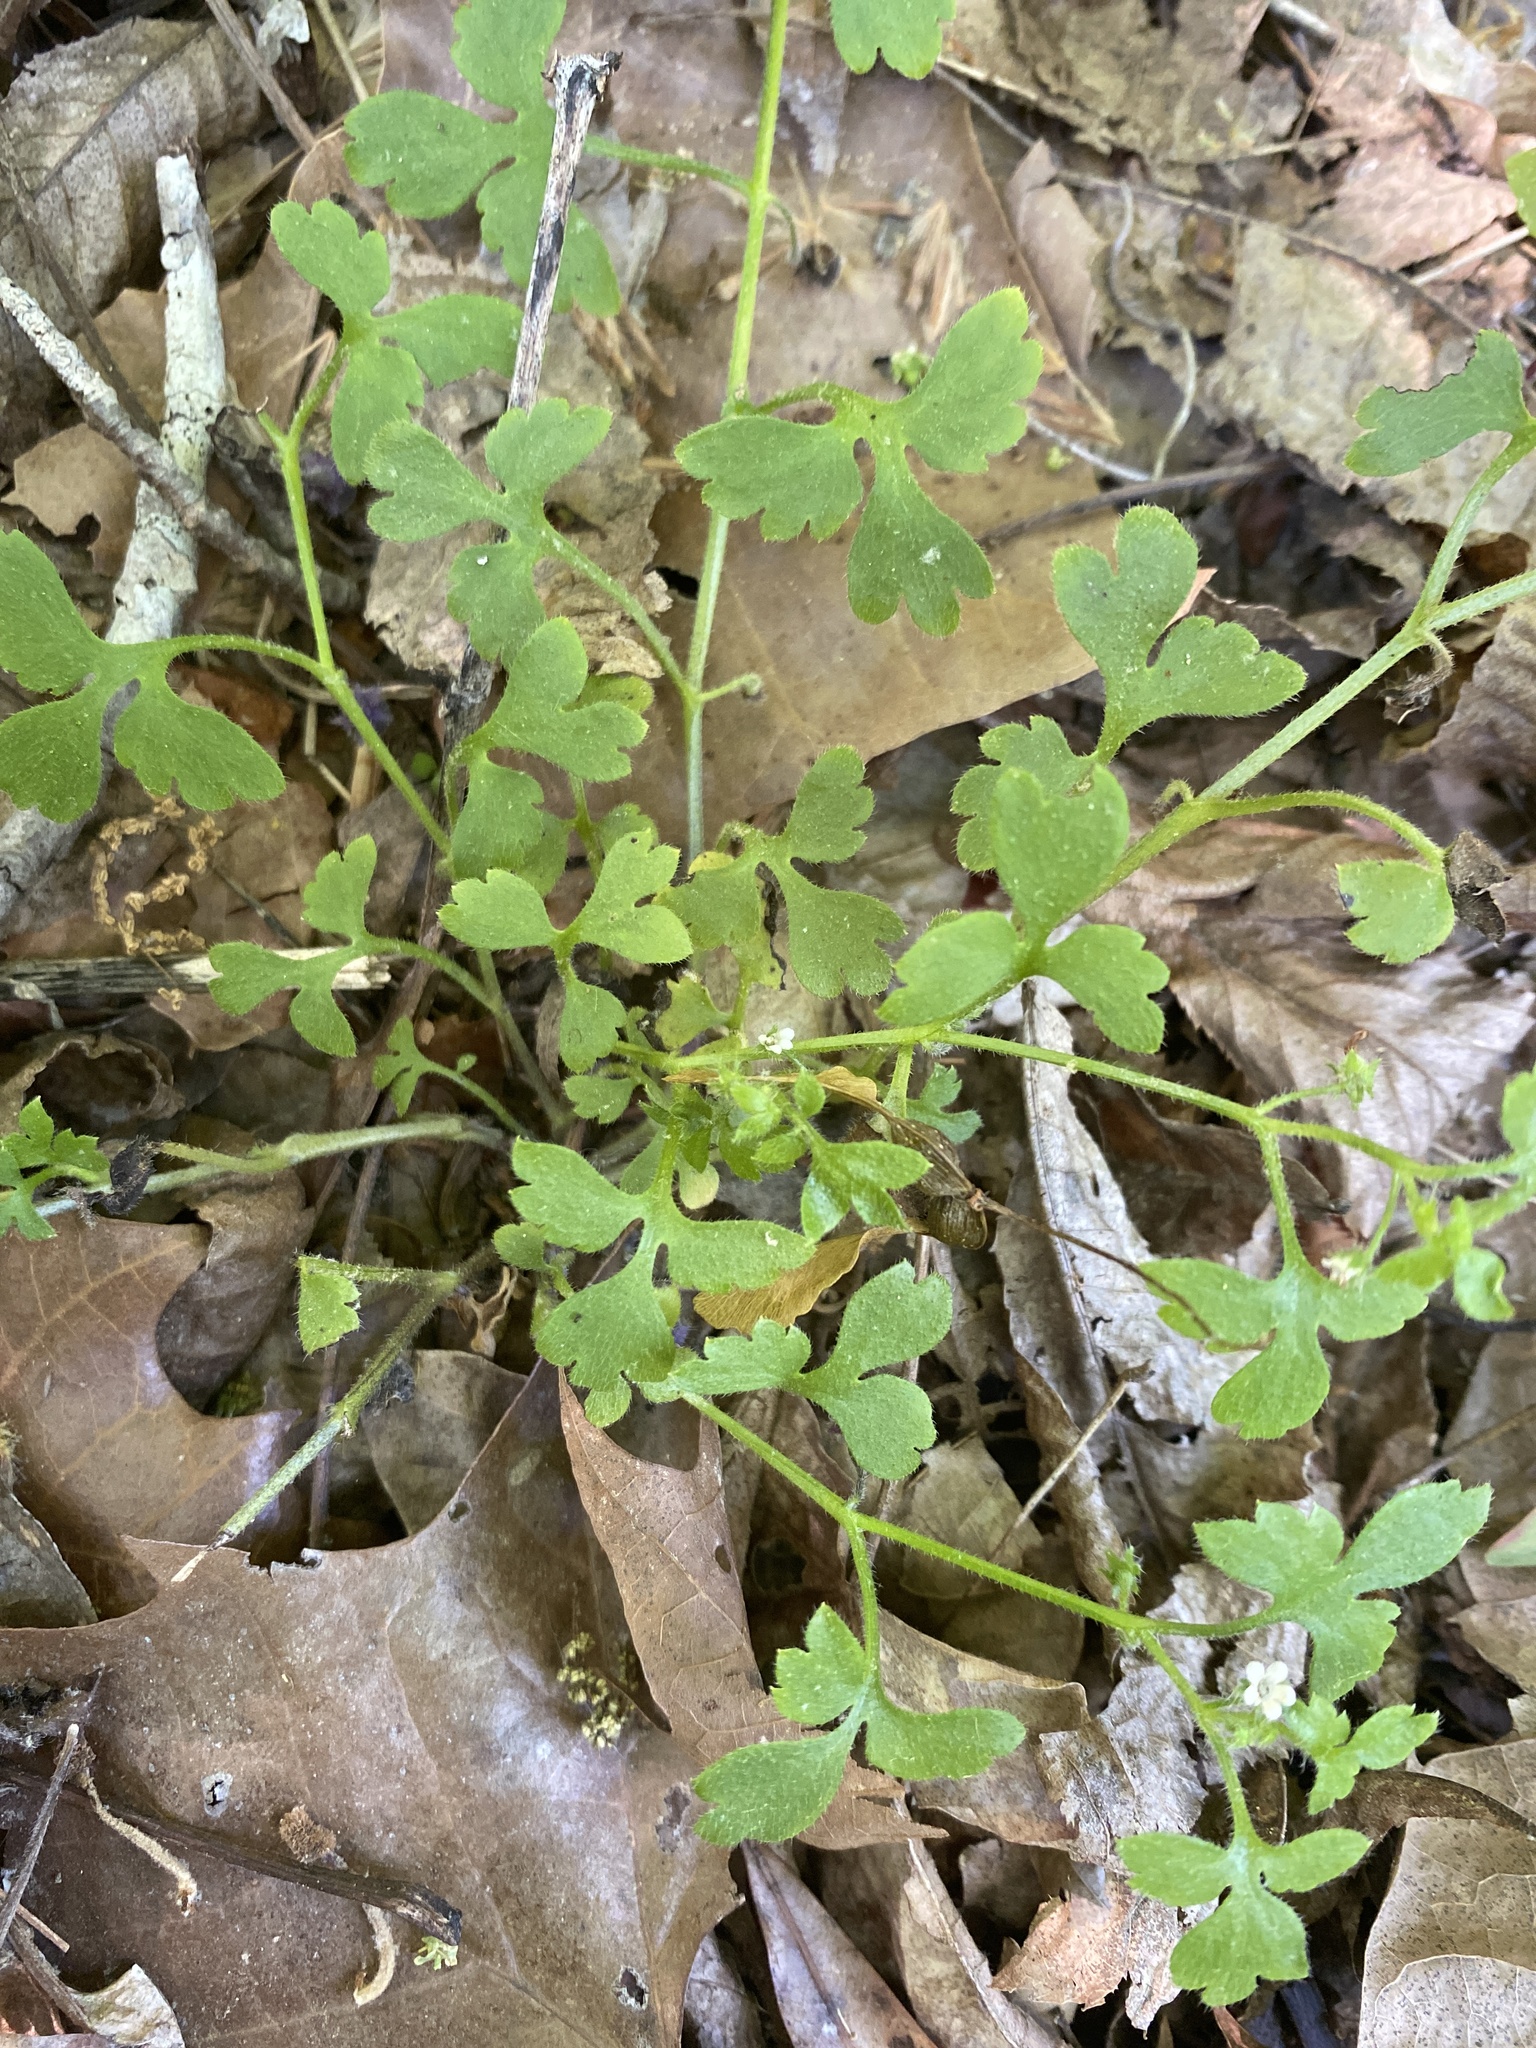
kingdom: Plantae
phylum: Tracheophyta
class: Magnoliopsida
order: Boraginales
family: Hydrophyllaceae
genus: Nemophila
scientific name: Nemophila aphylla
